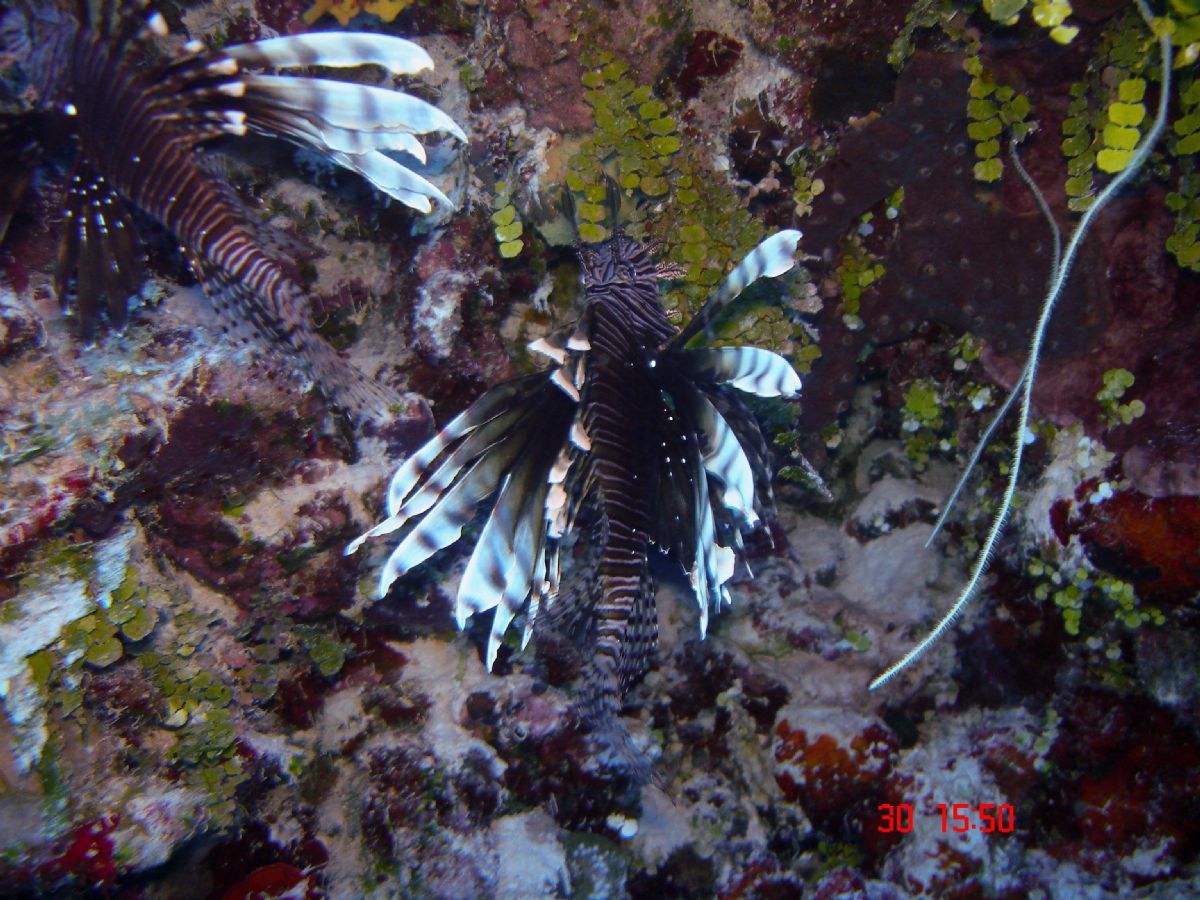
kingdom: Animalia
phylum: Chordata
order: Scorpaeniformes
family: Scorpaenidae
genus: Pterois
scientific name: Pterois volitans
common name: Lionfish
